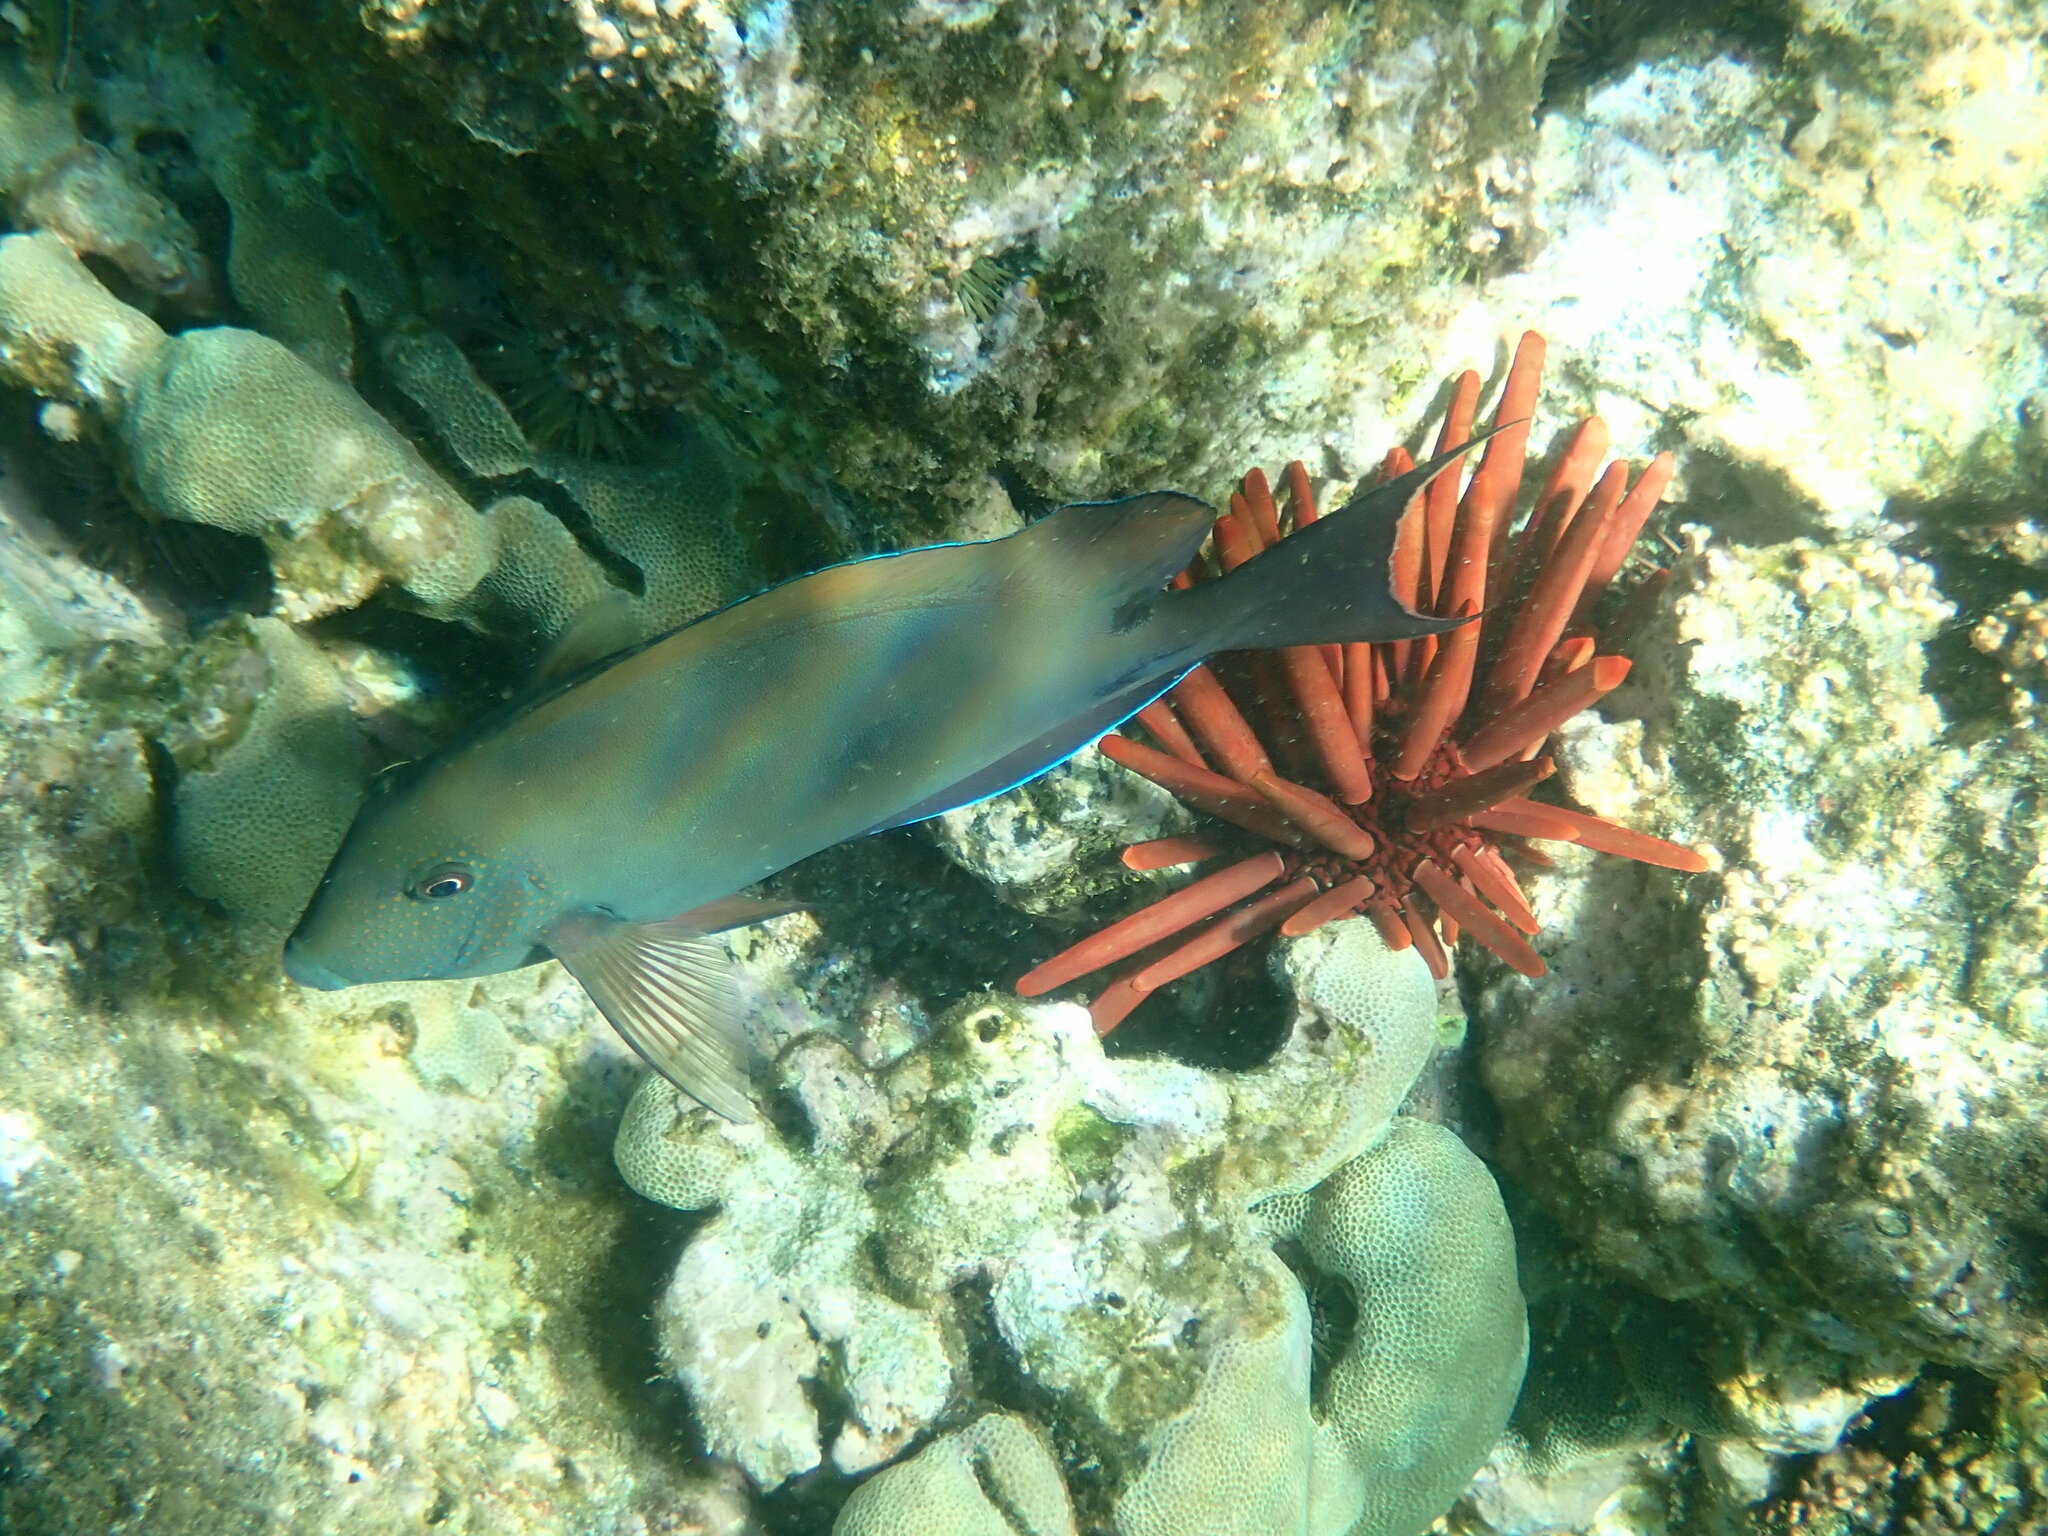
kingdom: Animalia
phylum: Chordata
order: Perciformes
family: Acanthuridae
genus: Acanthurus
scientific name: Acanthurus nigrofuscus
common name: Blackspot surgeonfish
